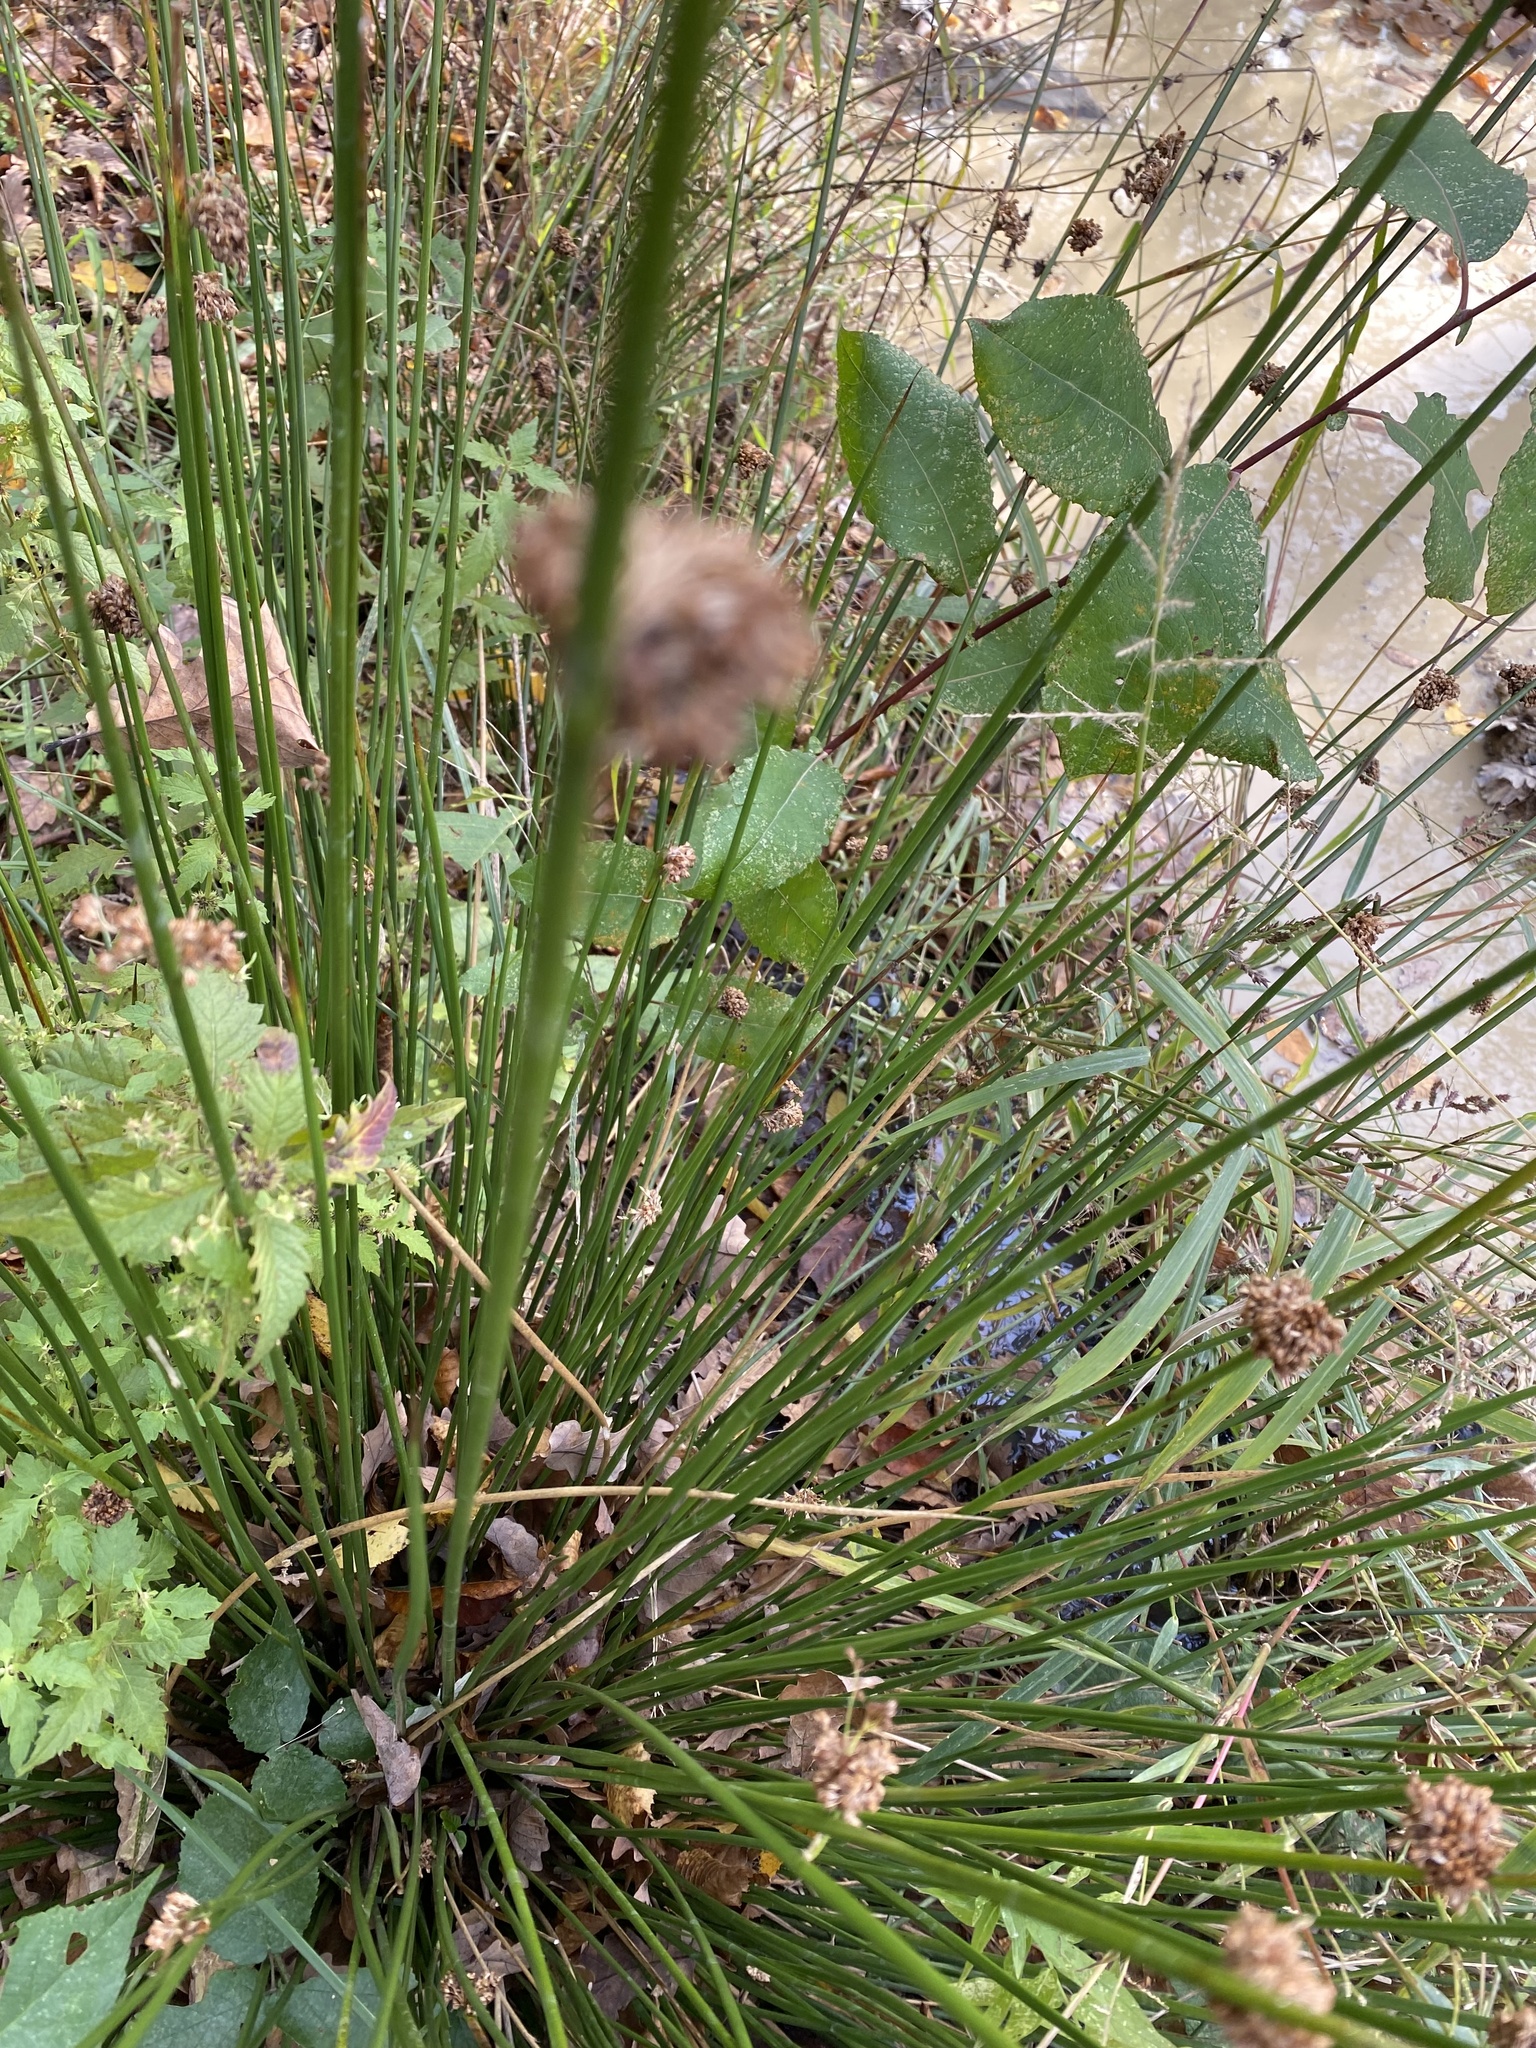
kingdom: Plantae
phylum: Tracheophyta
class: Liliopsida
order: Poales
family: Juncaceae
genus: Juncus
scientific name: Juncus effusus
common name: Soft rush
